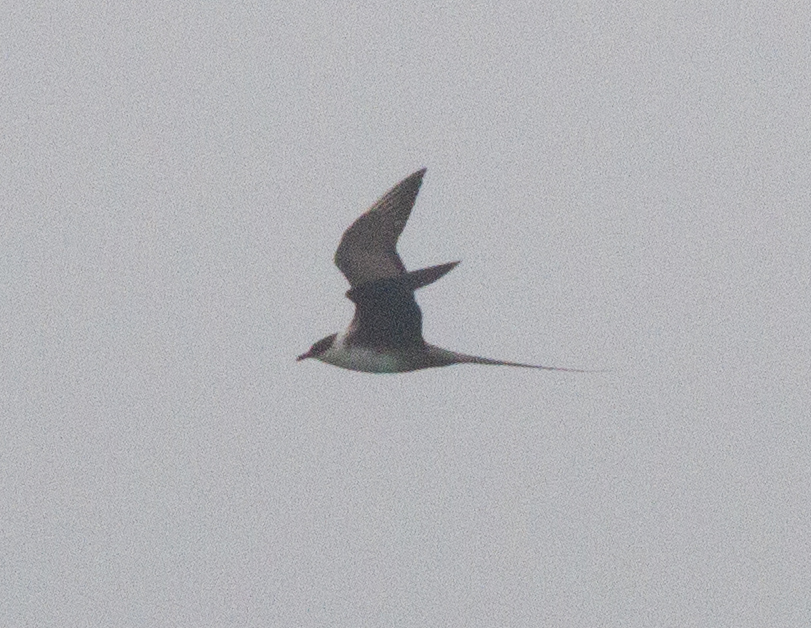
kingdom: Animalia
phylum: Chordata
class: Aves
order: Charadriiformes
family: Stercorariidae
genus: Stercorarius
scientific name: Stercorarius longicaudus
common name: Long-tailed jaeger
